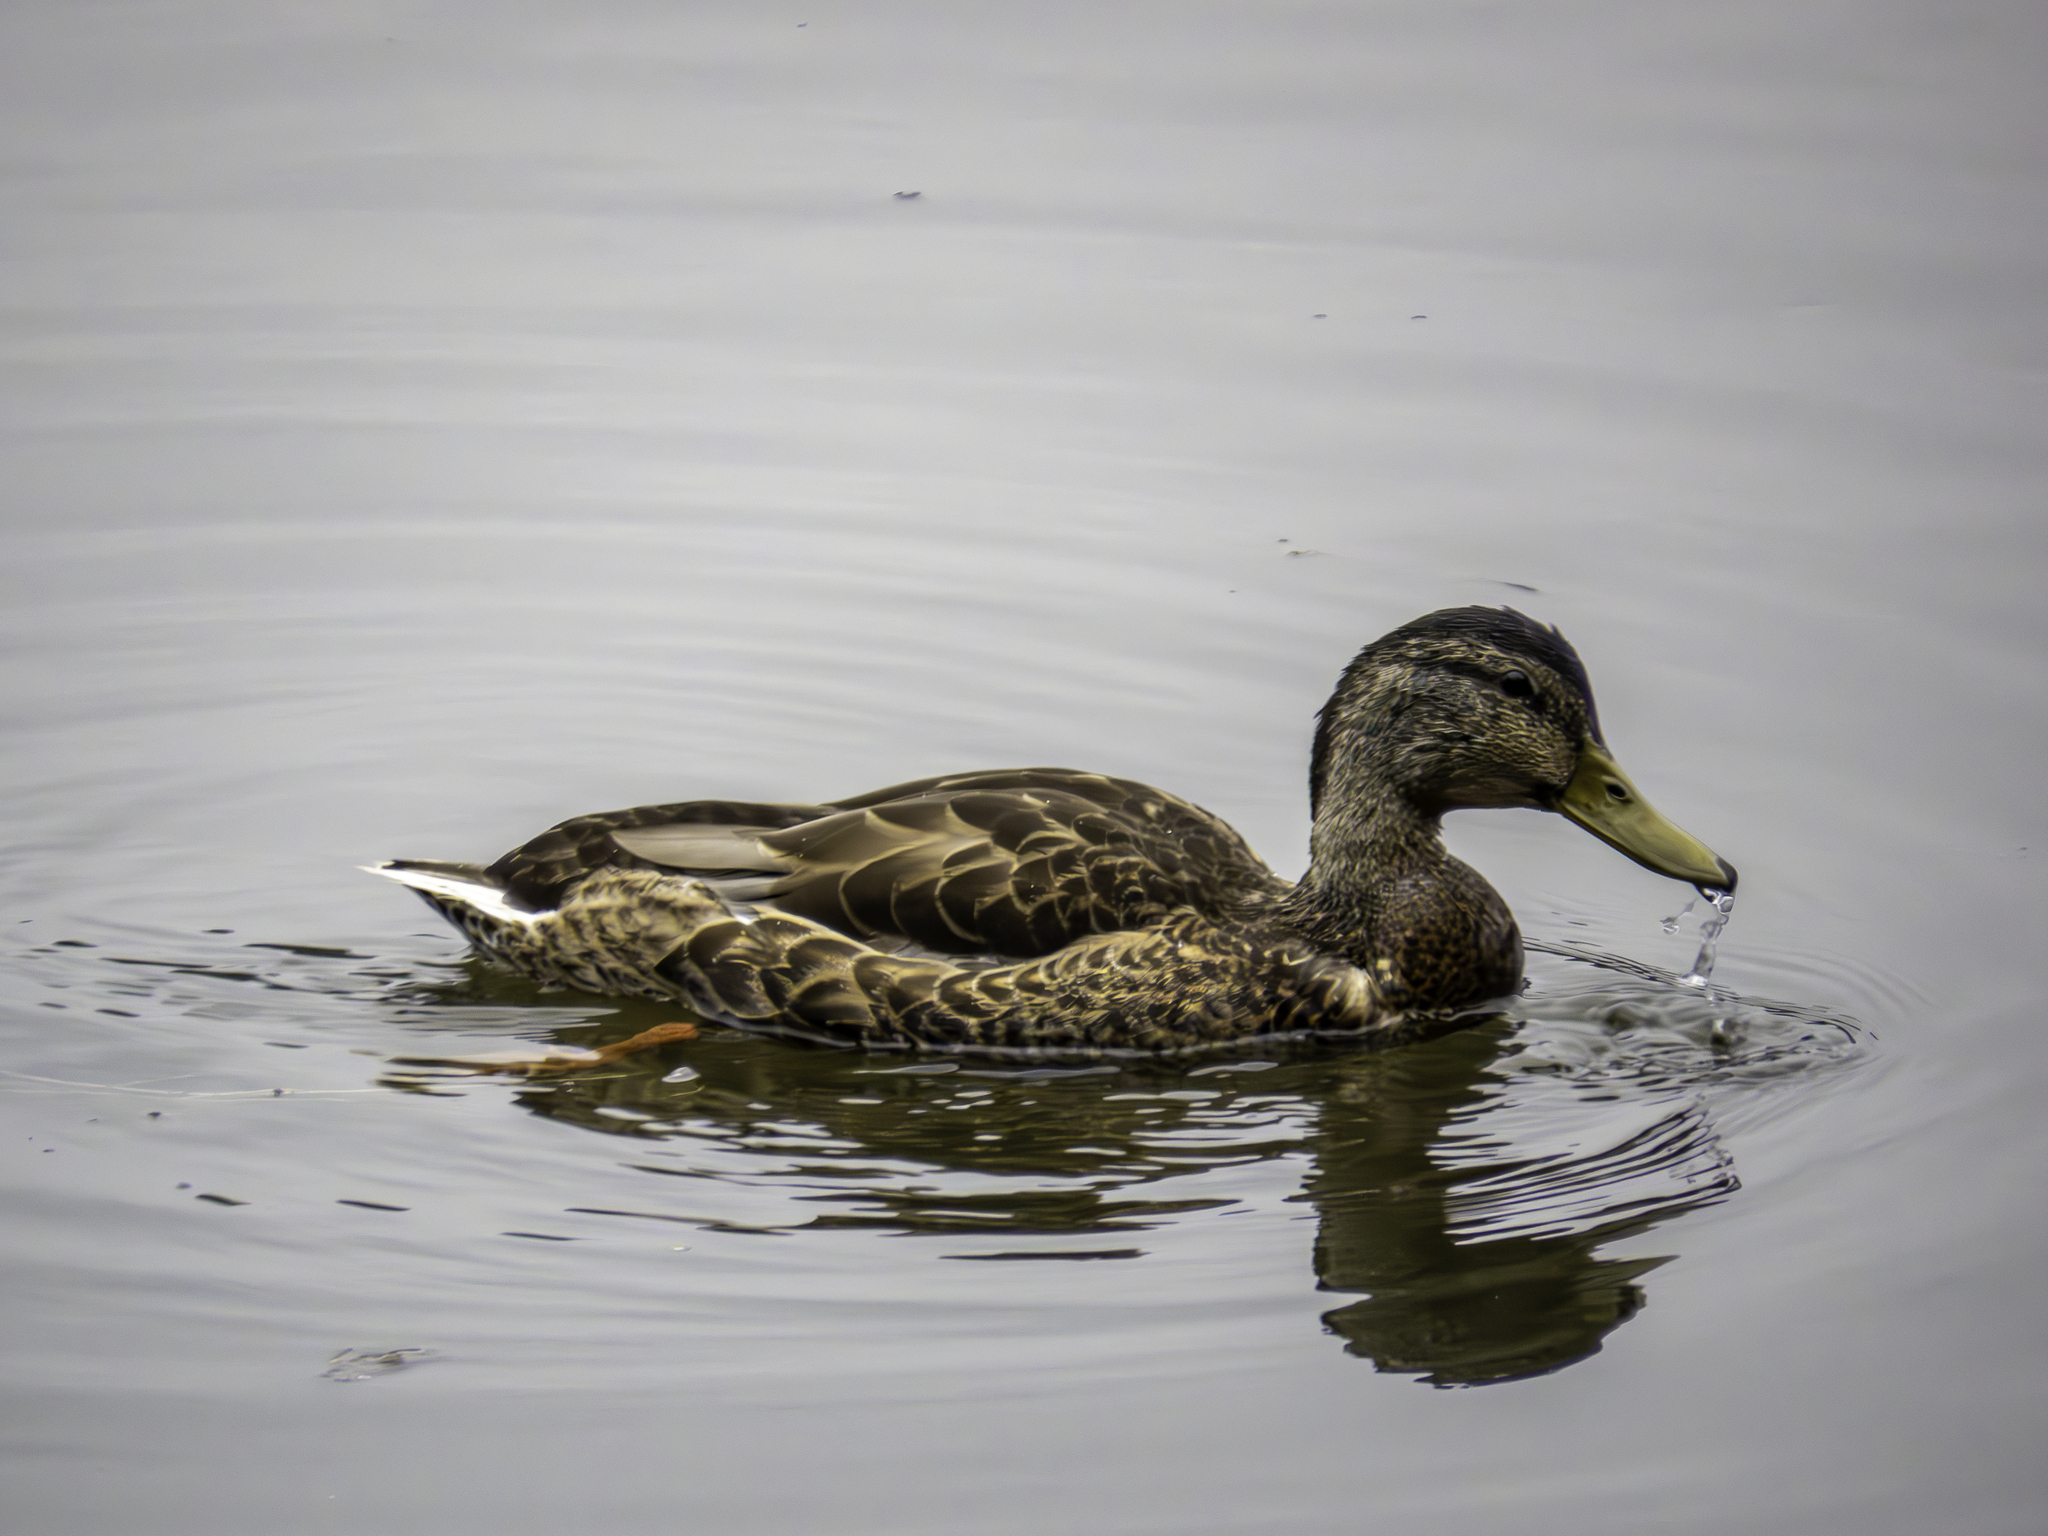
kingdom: Animalia
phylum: Chordata
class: Aves
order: Anseriformes
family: Anatidae
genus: Anas
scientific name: Anas platyrhynchos
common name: Mallard
